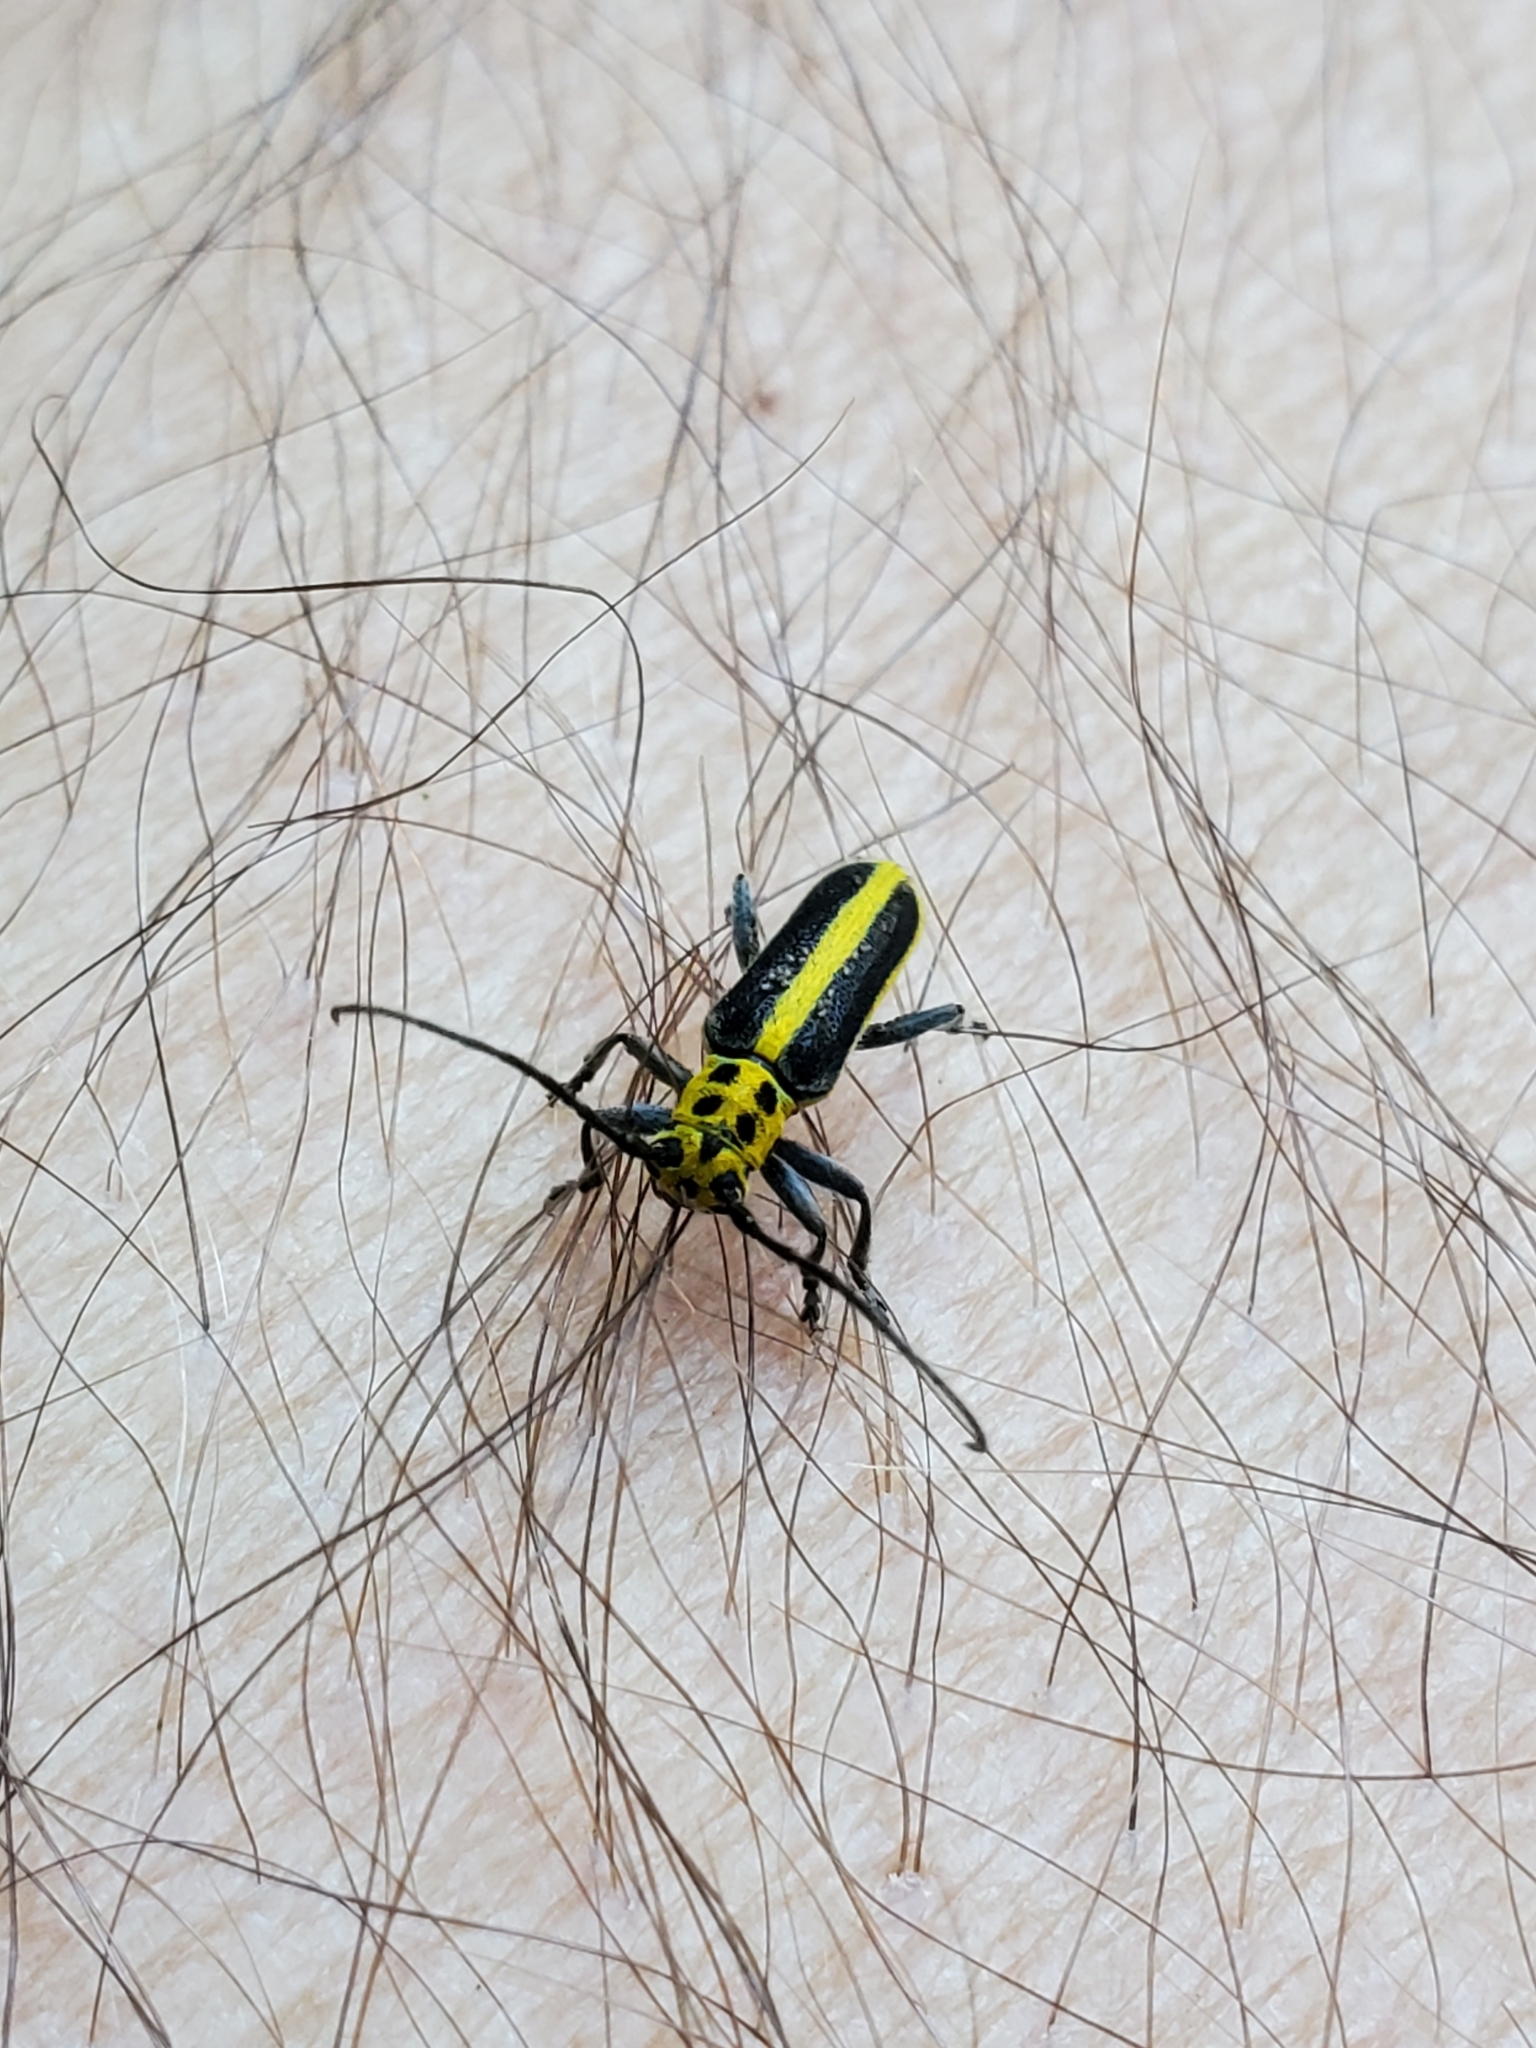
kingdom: Animalia
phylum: Arthropoda
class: Insecta
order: Coleoptera
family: Cerambycidae
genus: Saperda
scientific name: Saperda puncticollis
